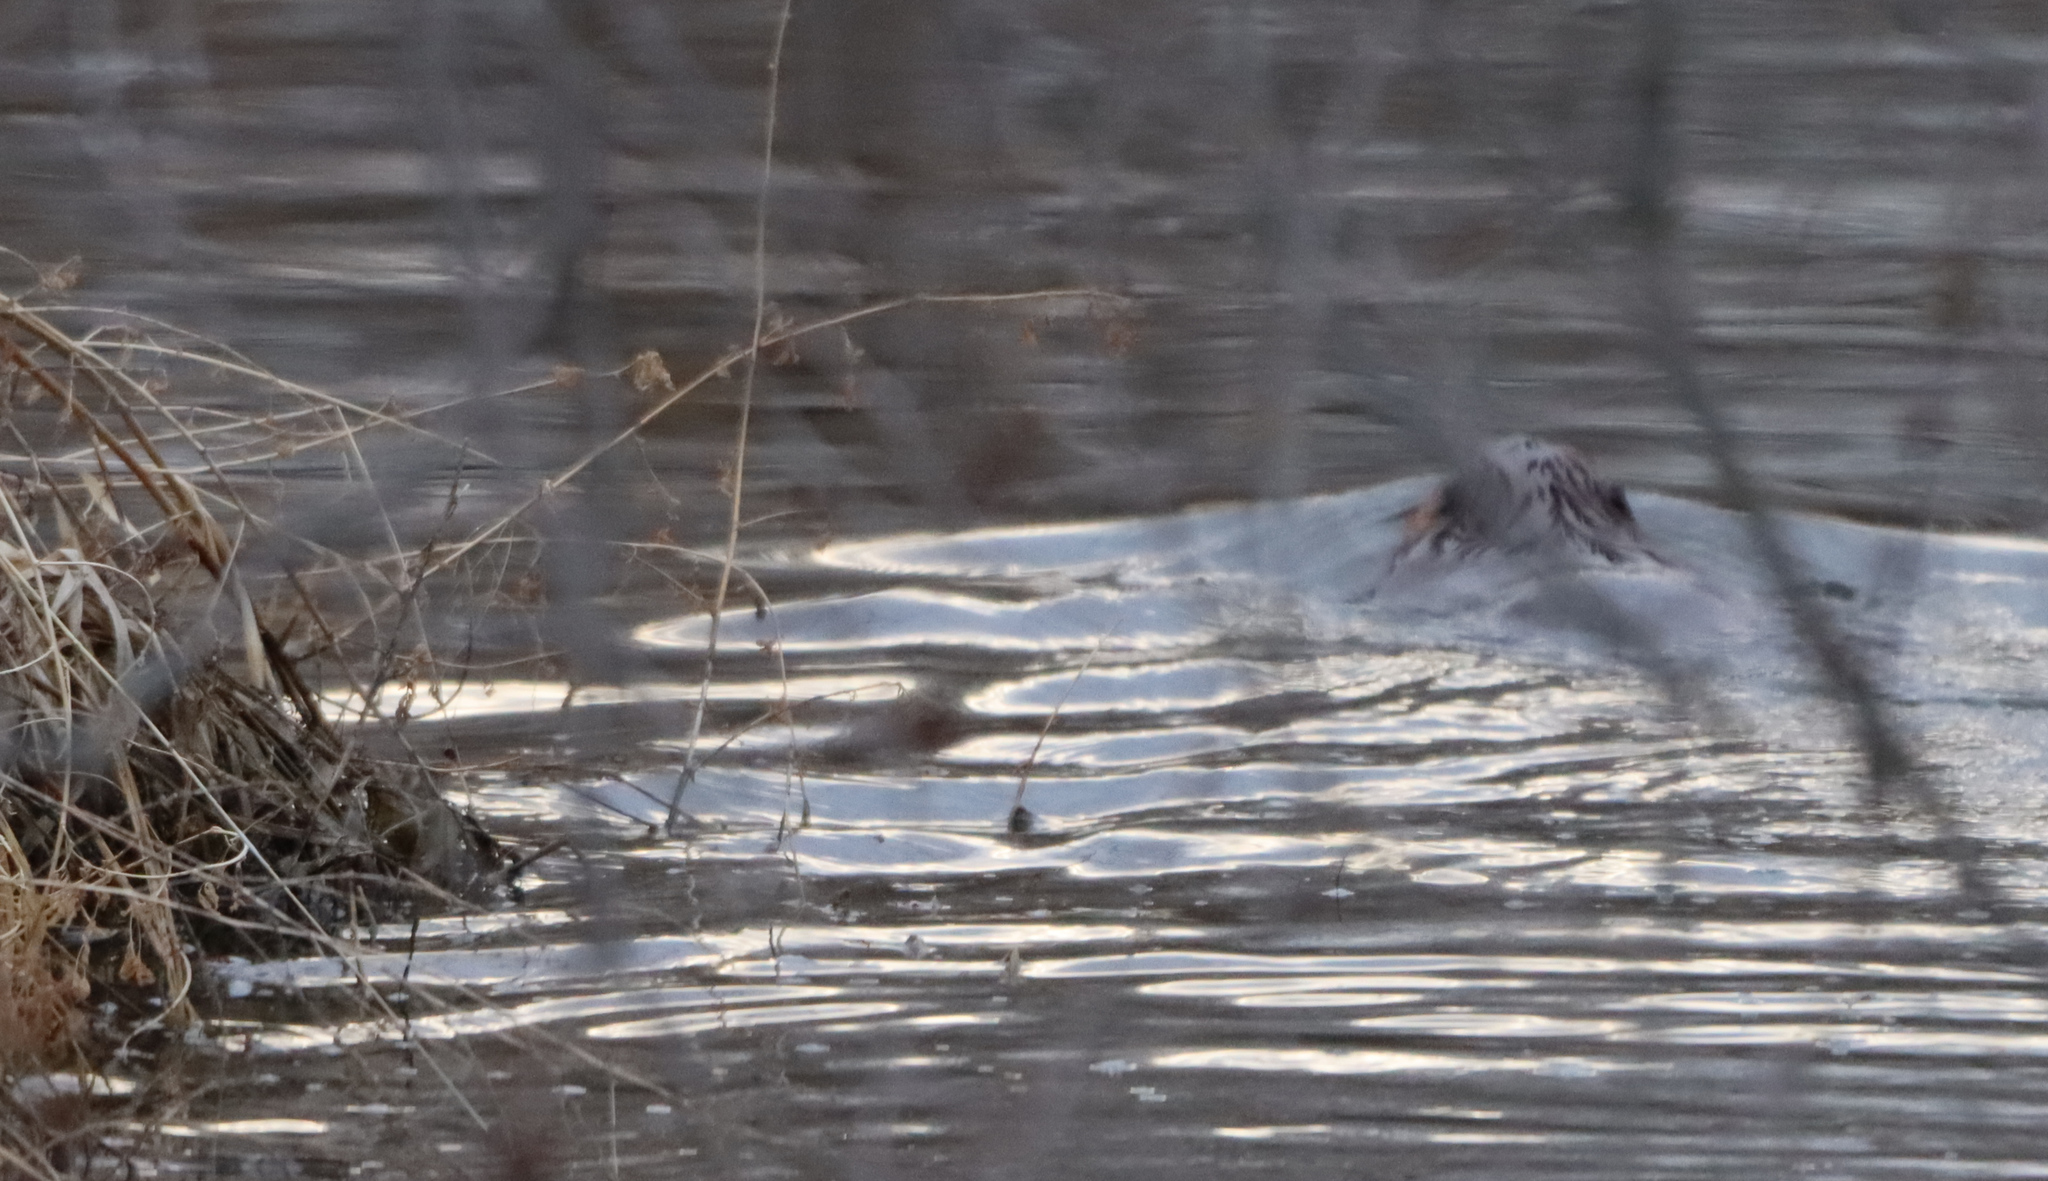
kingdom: Animalia
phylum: Chordata
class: Mammalia
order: Rodentia
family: Castoridae
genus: Castor
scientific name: Castor canadensis
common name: American beaver
